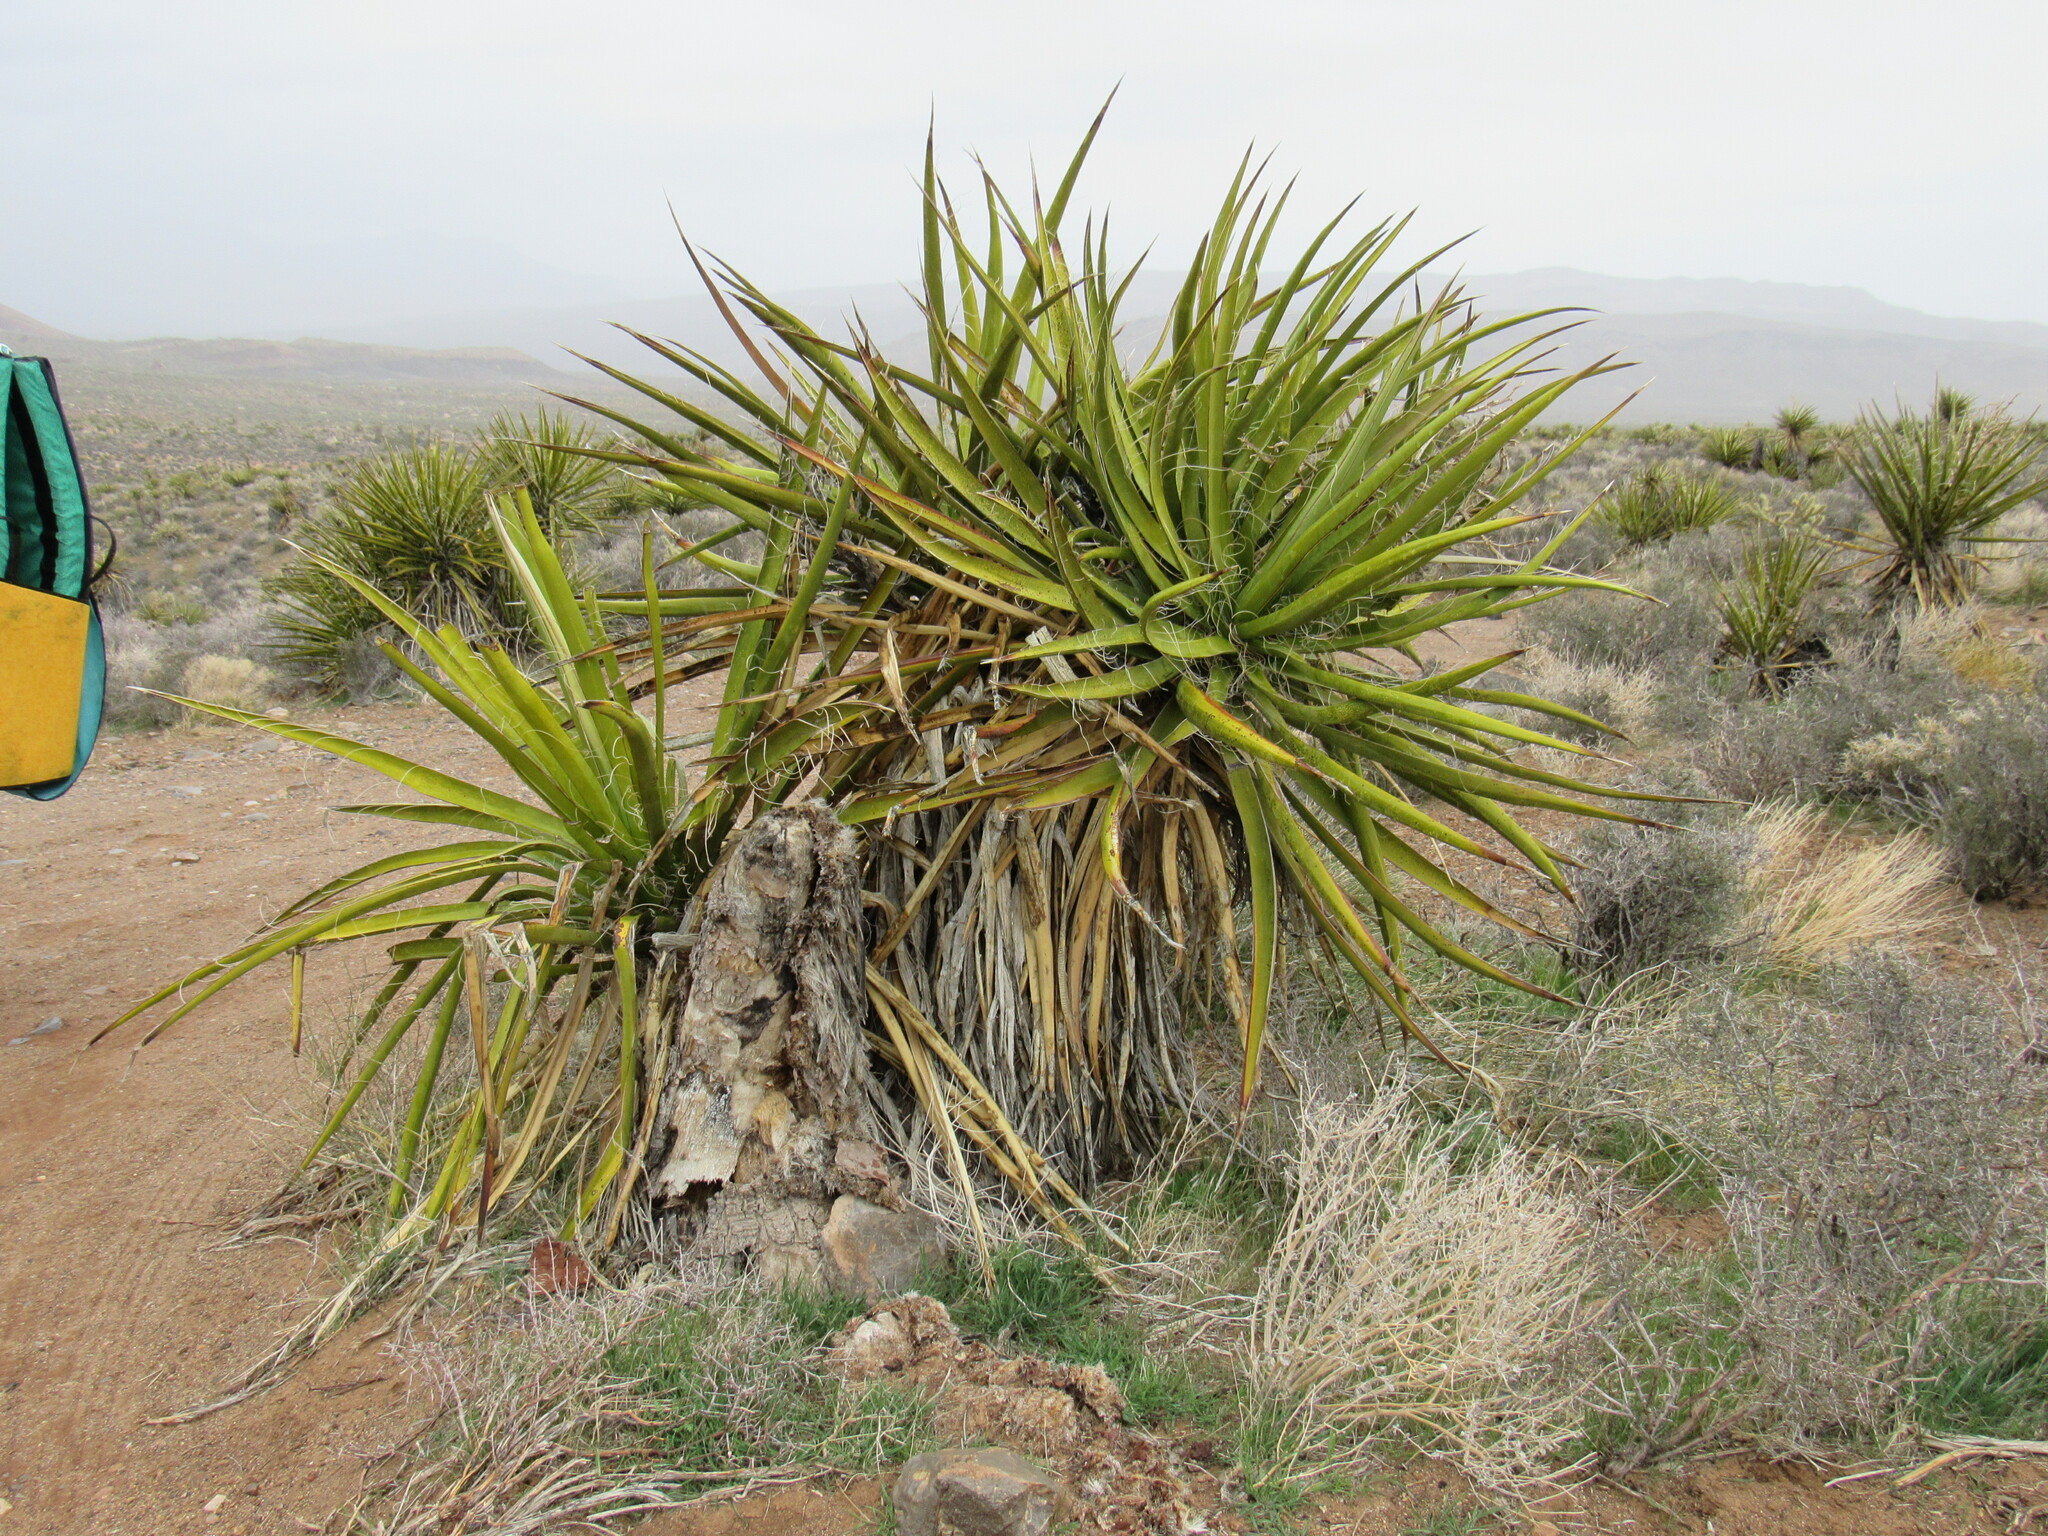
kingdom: Plantae
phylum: Tracheophyta
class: Liliopsida
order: Asparagales
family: Asparagaceae
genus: Yucca
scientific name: Yucca schidigera
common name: Mojave yucca
